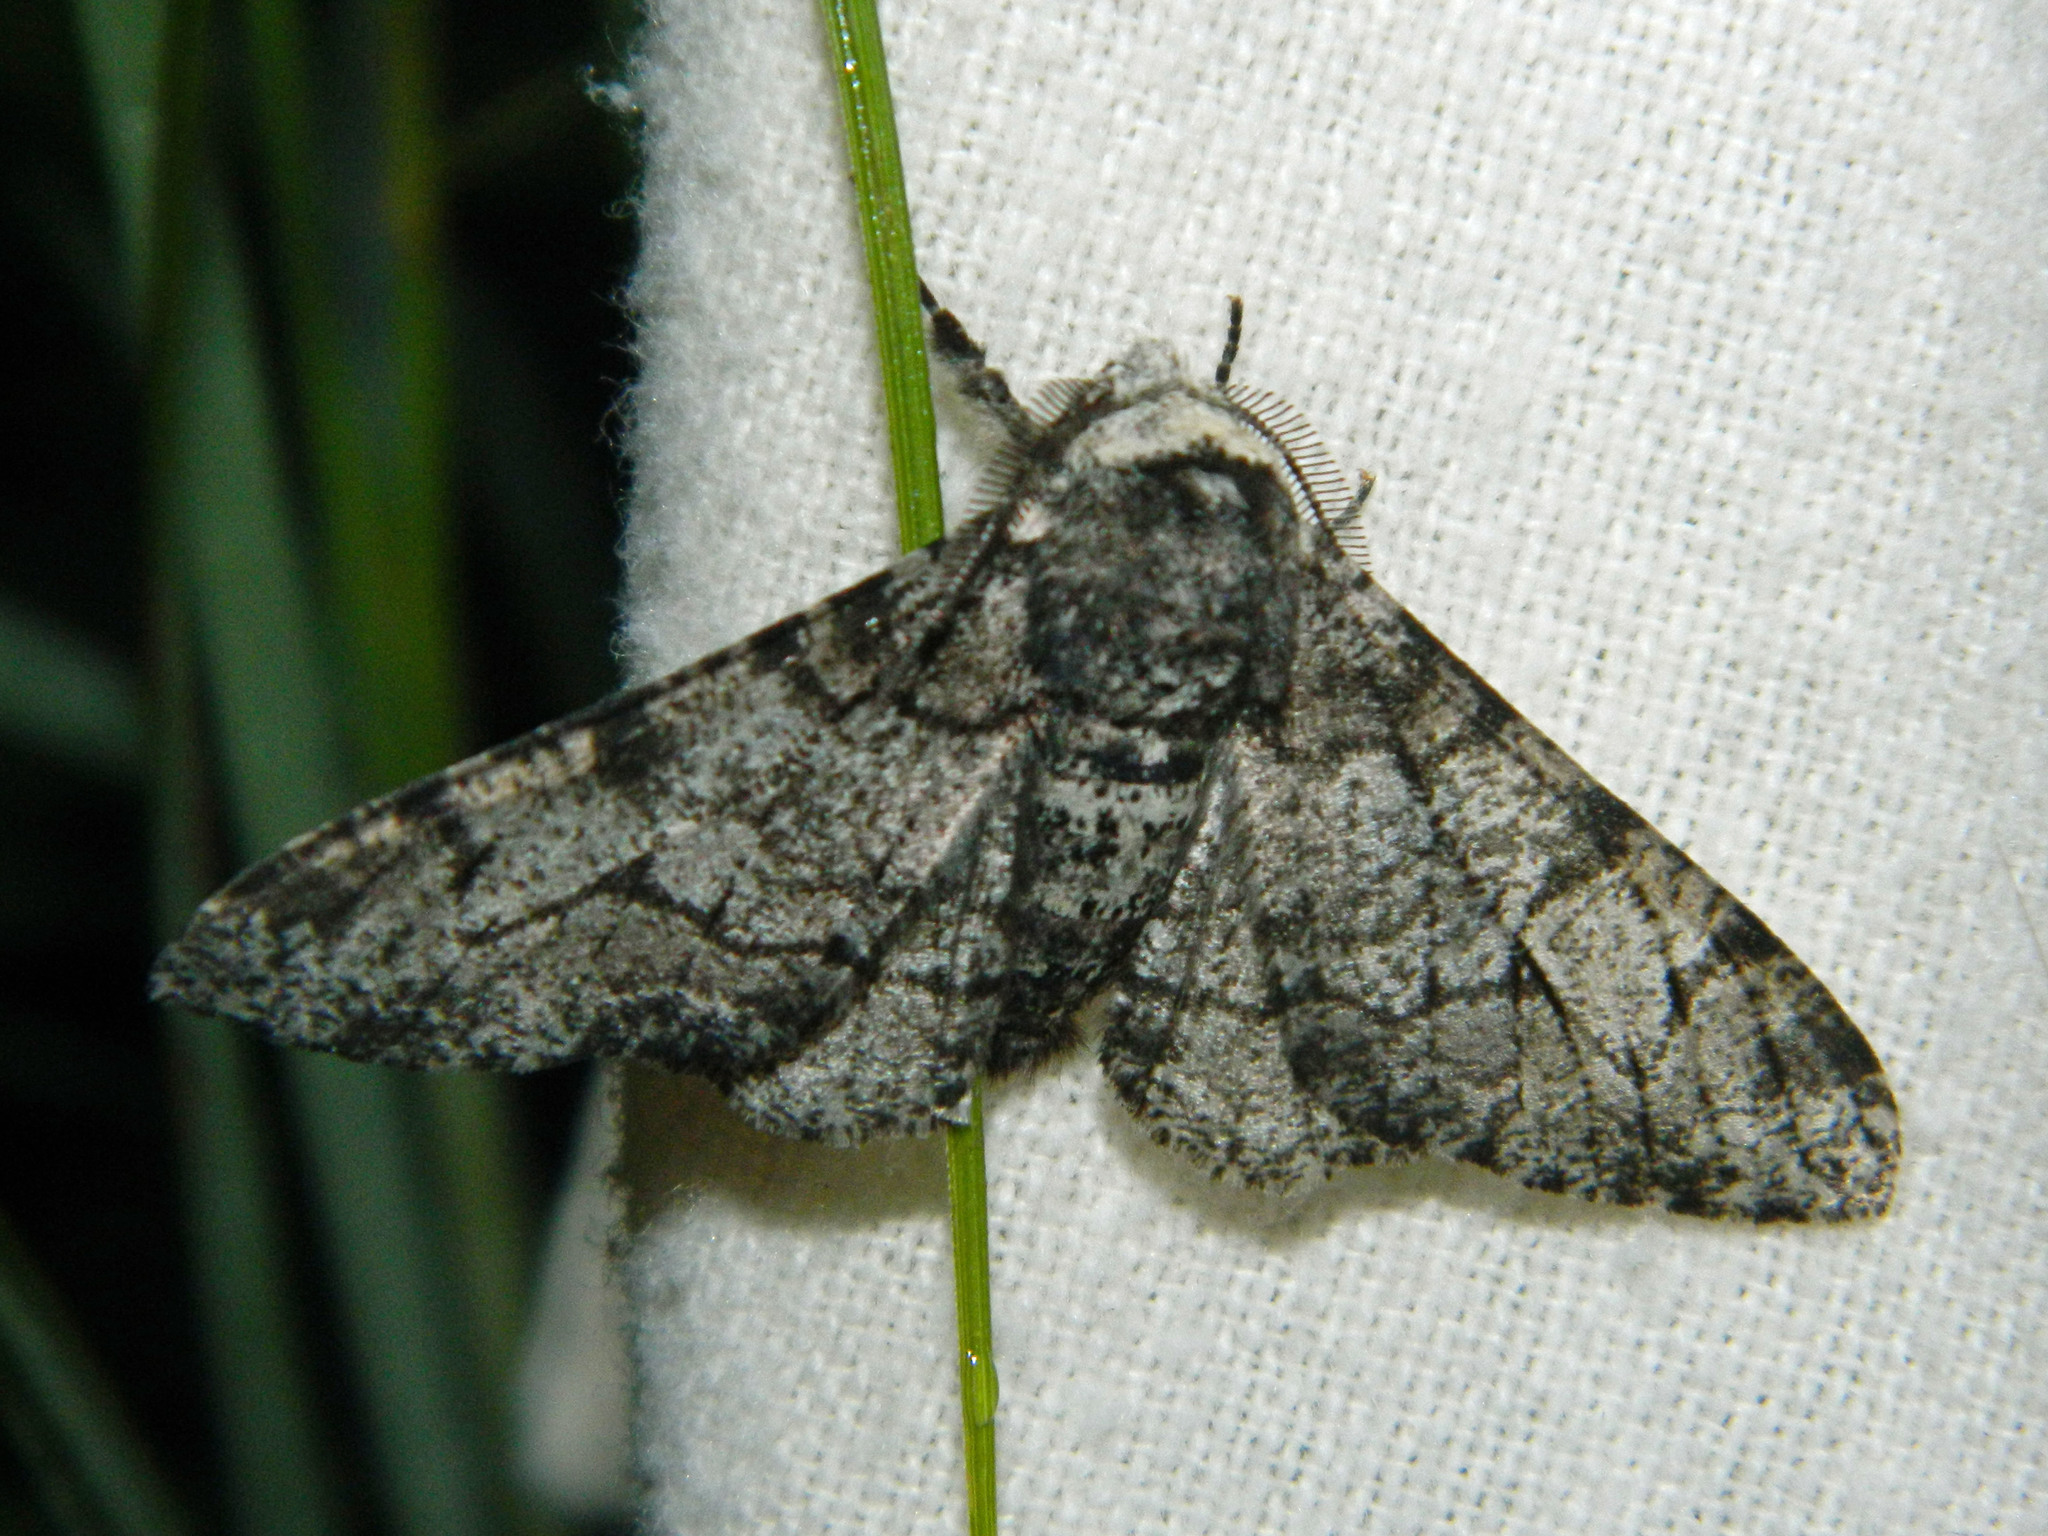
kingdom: Animalia
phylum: Arthropoda
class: Insecta
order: Lepidoptera
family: Geometridae
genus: Biston
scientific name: Biston betularia
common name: Peppered moth
